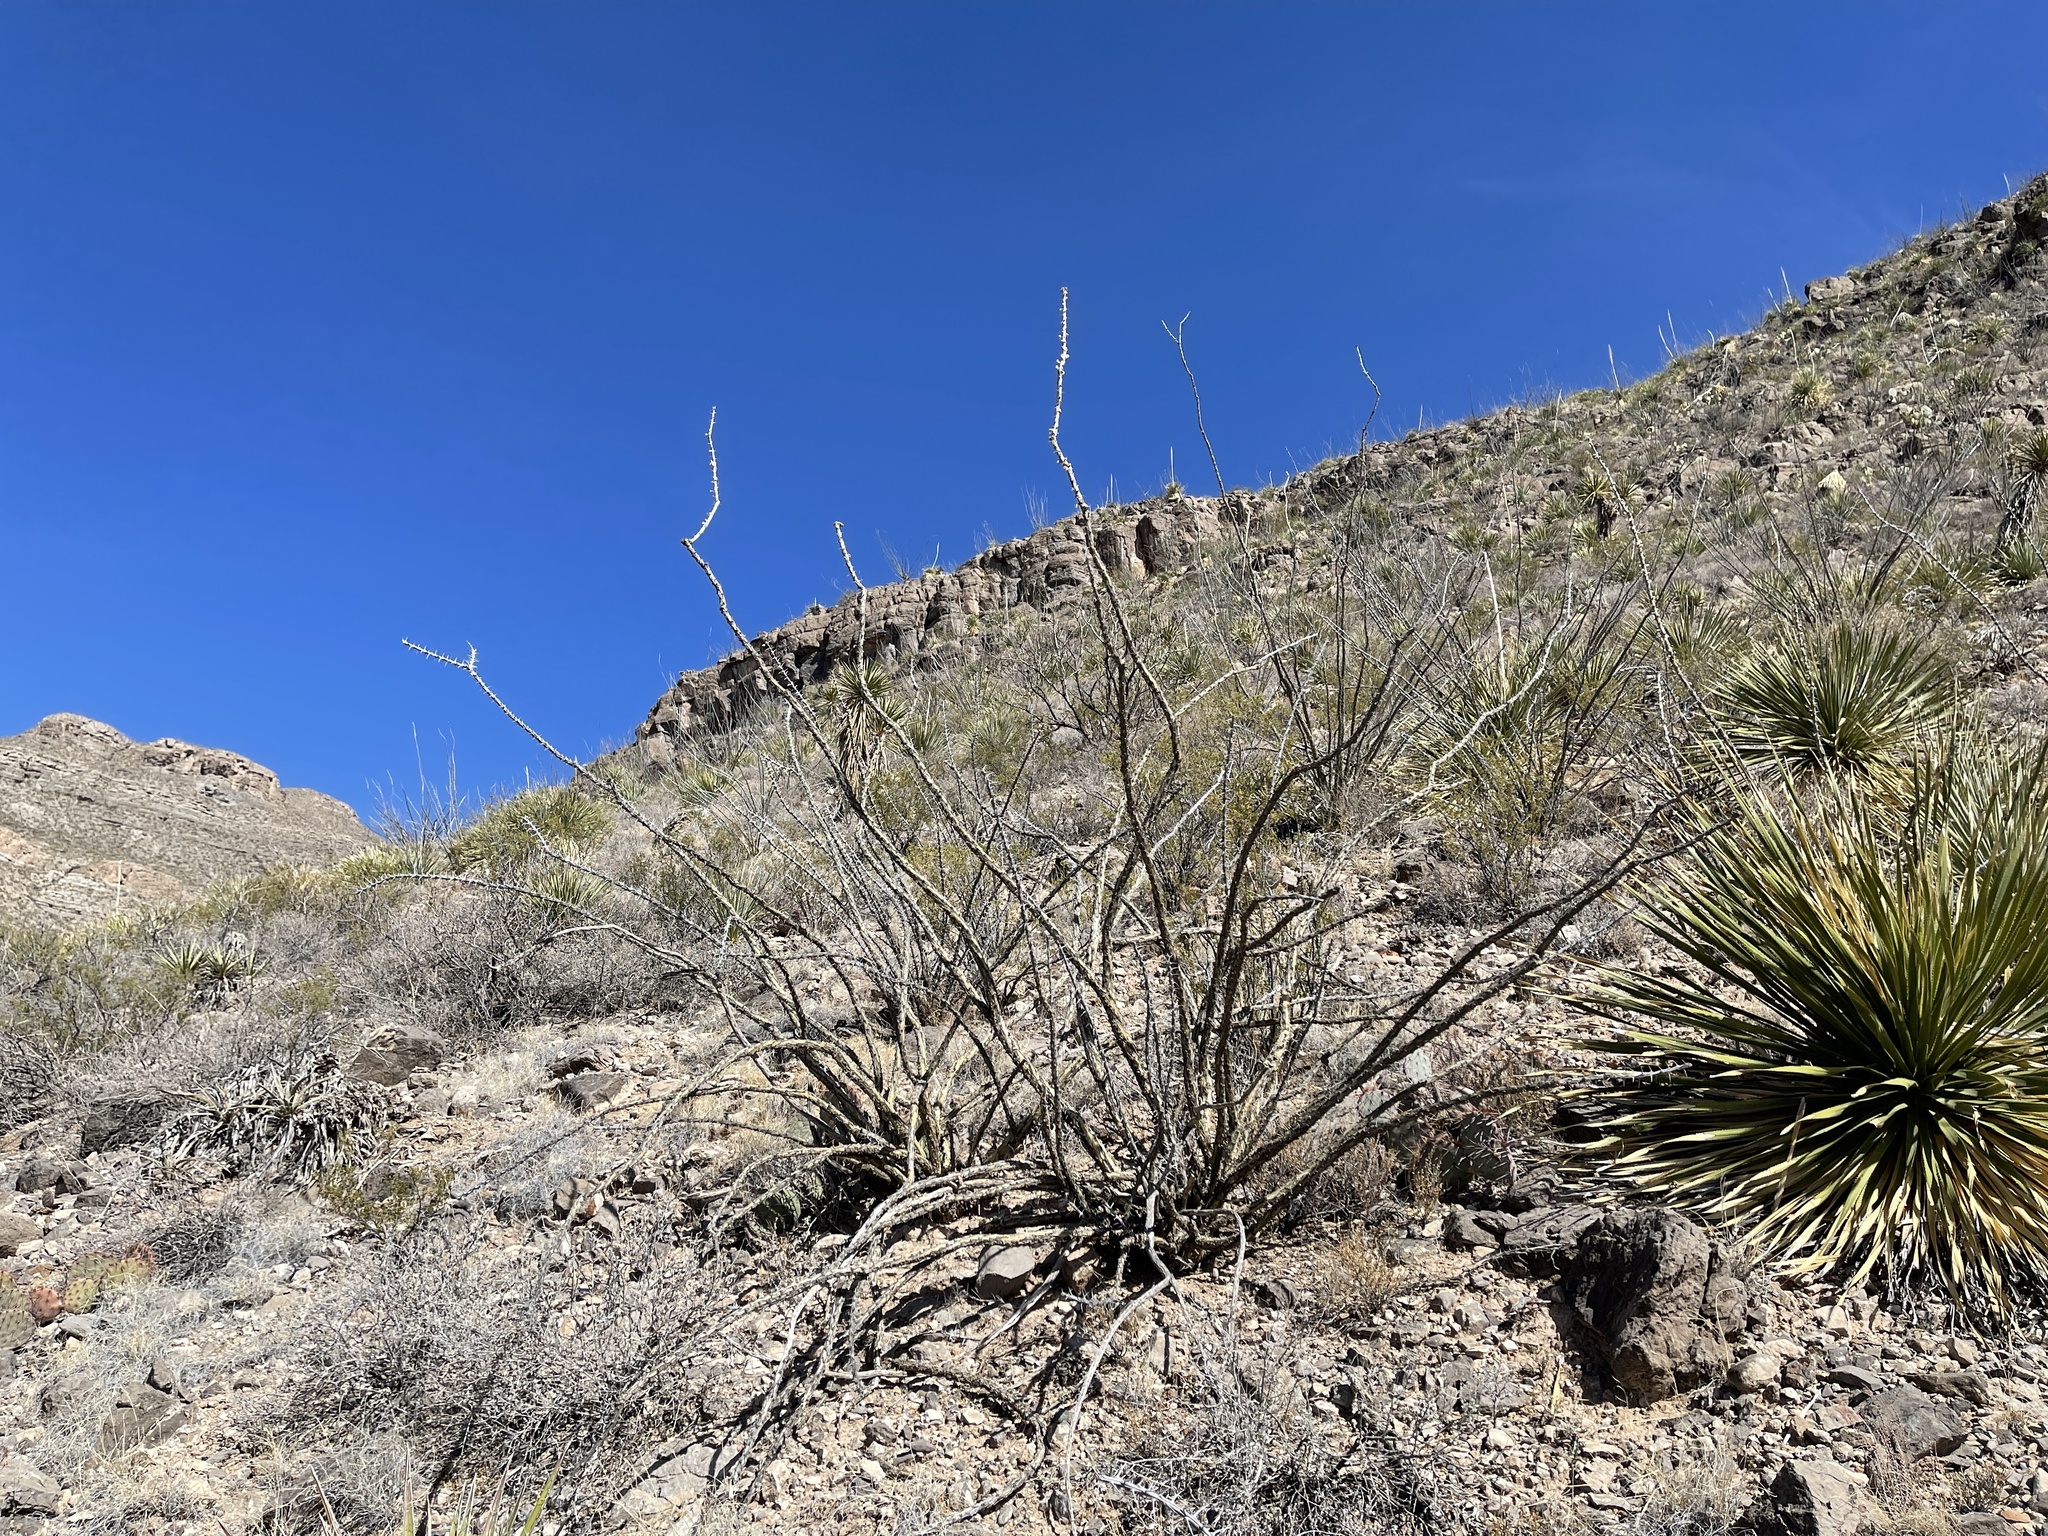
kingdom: Plantae
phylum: Tracheophyta
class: Magnoliopsida
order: Ericales
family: Fouquieriaceae
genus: Fouquieria
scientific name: Fouquieria splendens
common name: Vine-cactus
